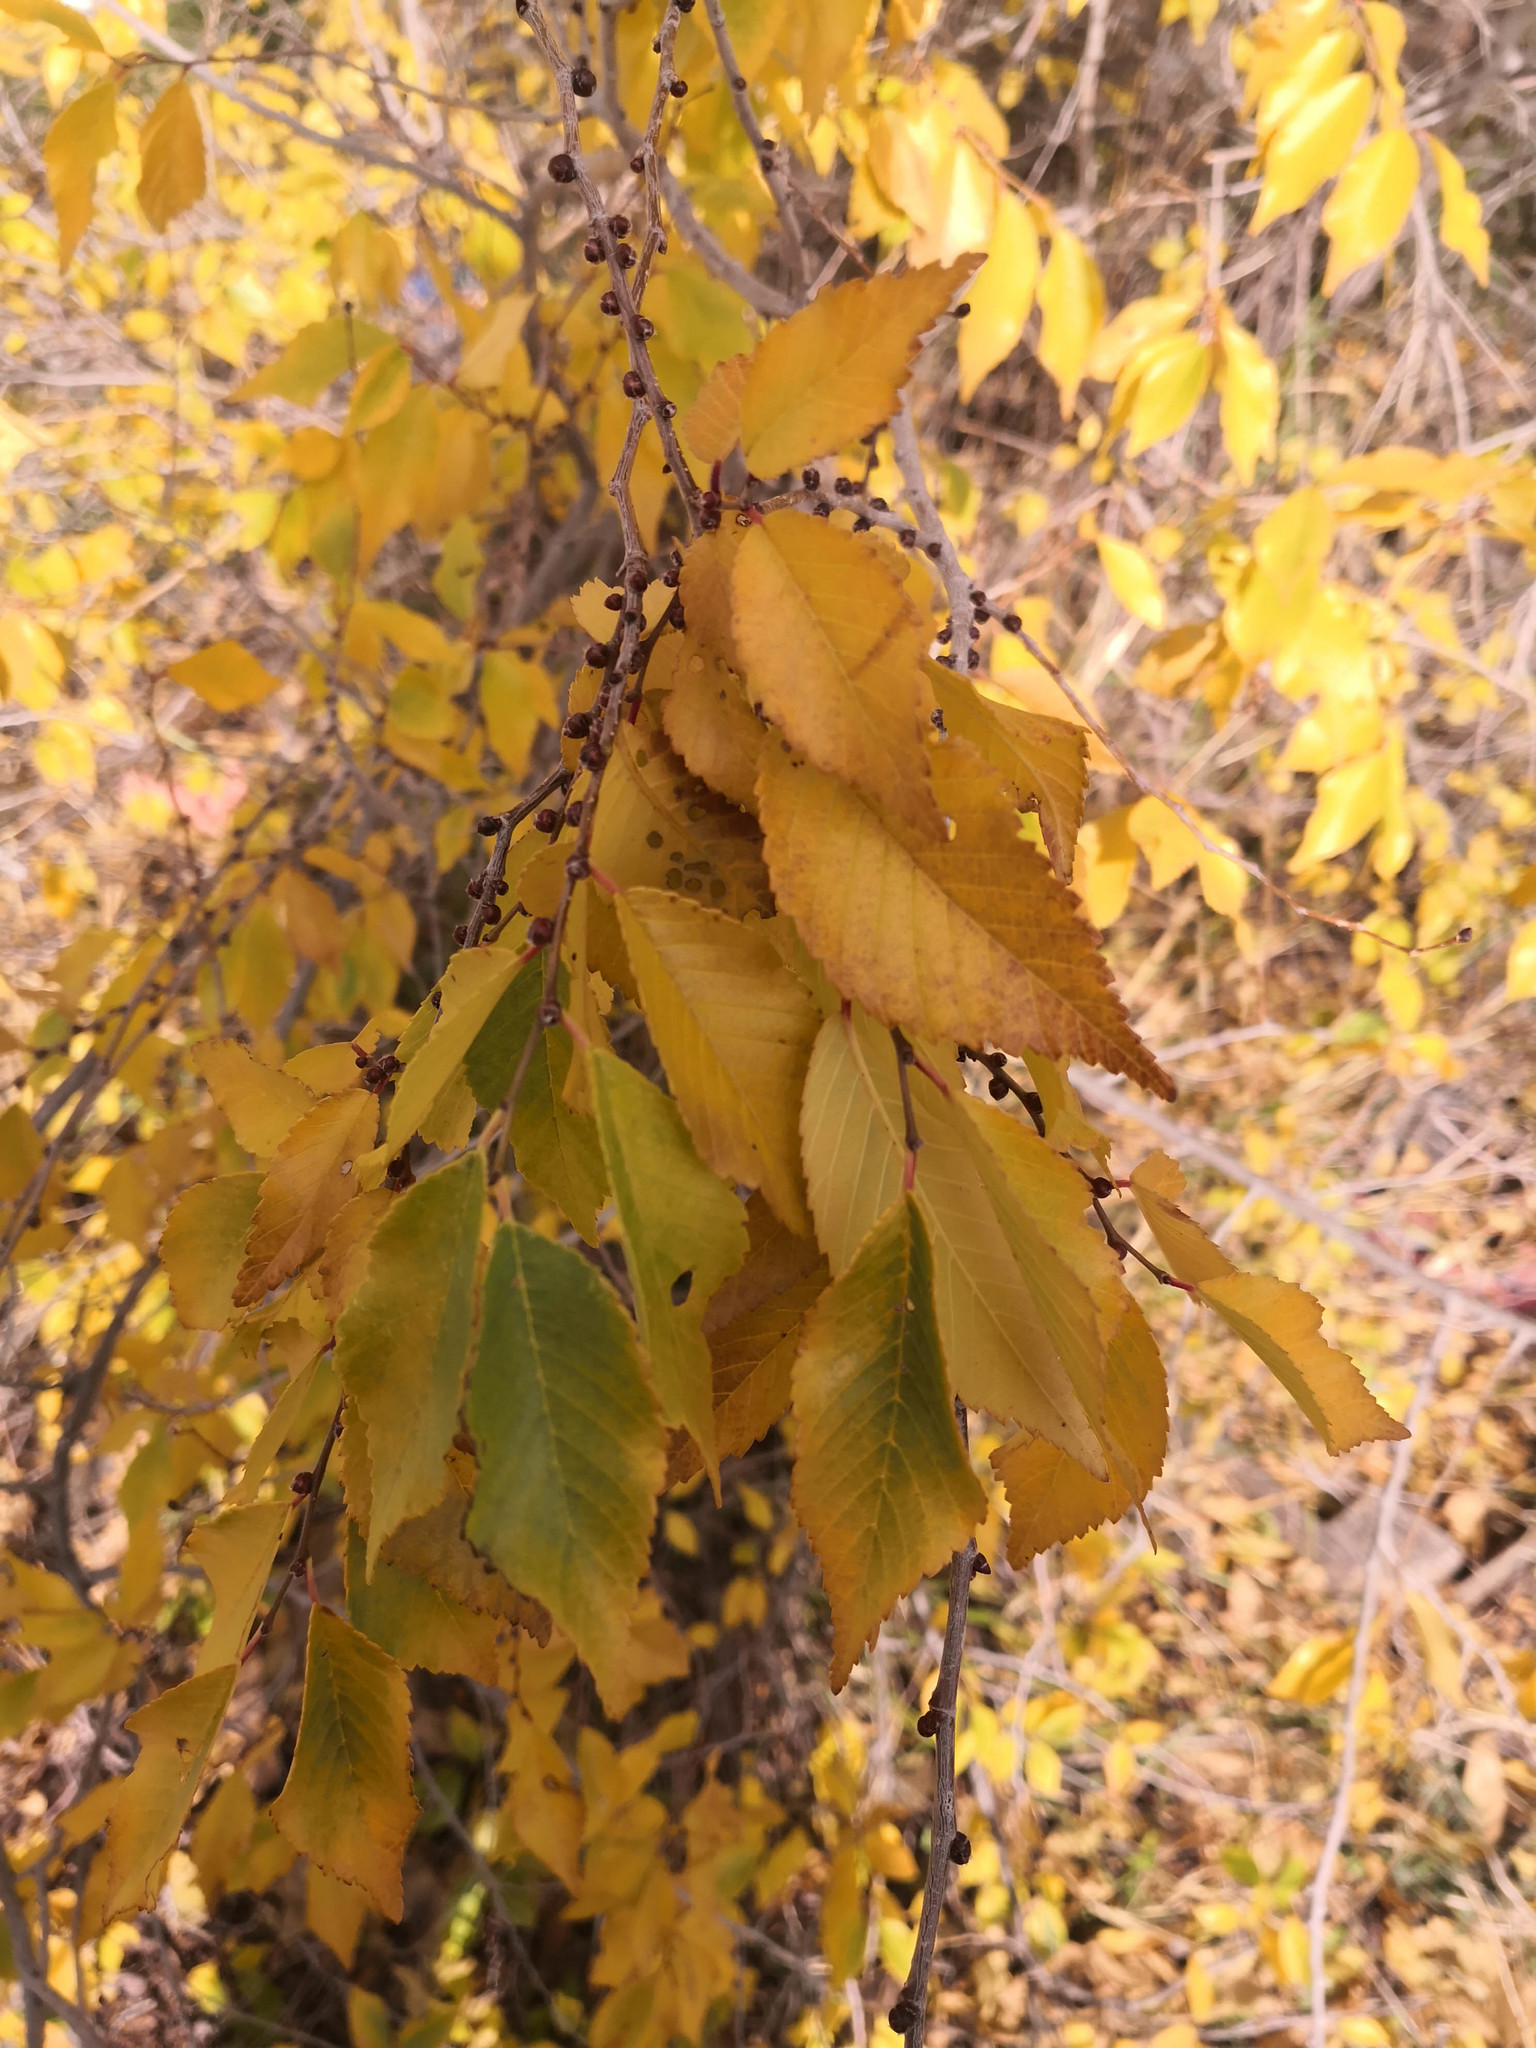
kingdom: Plantae
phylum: Tracheophyta
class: Magnoliopsida
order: Rosales
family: Ulmaceae
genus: Ulmus
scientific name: Ulmus pumila
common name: Siberian elm
